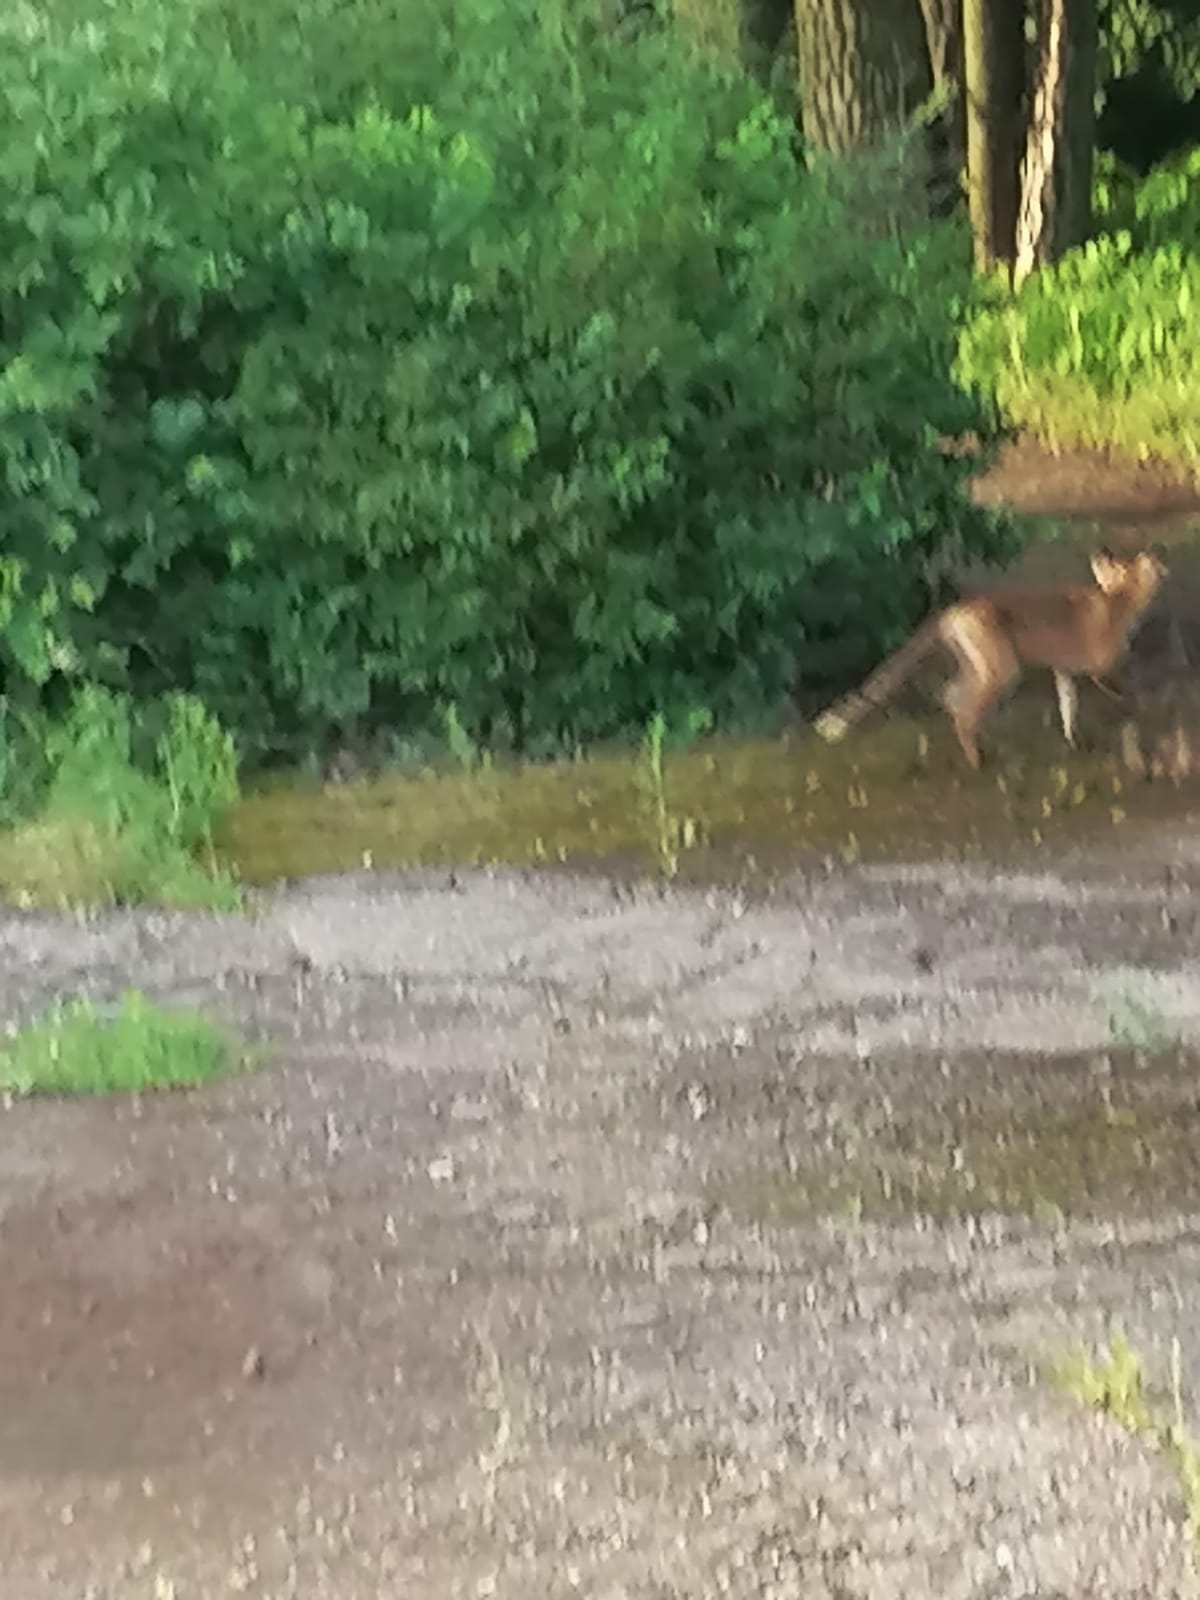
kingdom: Animalia
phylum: Chordata
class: Mammalia
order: Carnivora
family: Canidae
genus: Vulpes
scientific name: Vulpes vulpes
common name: Red fox
